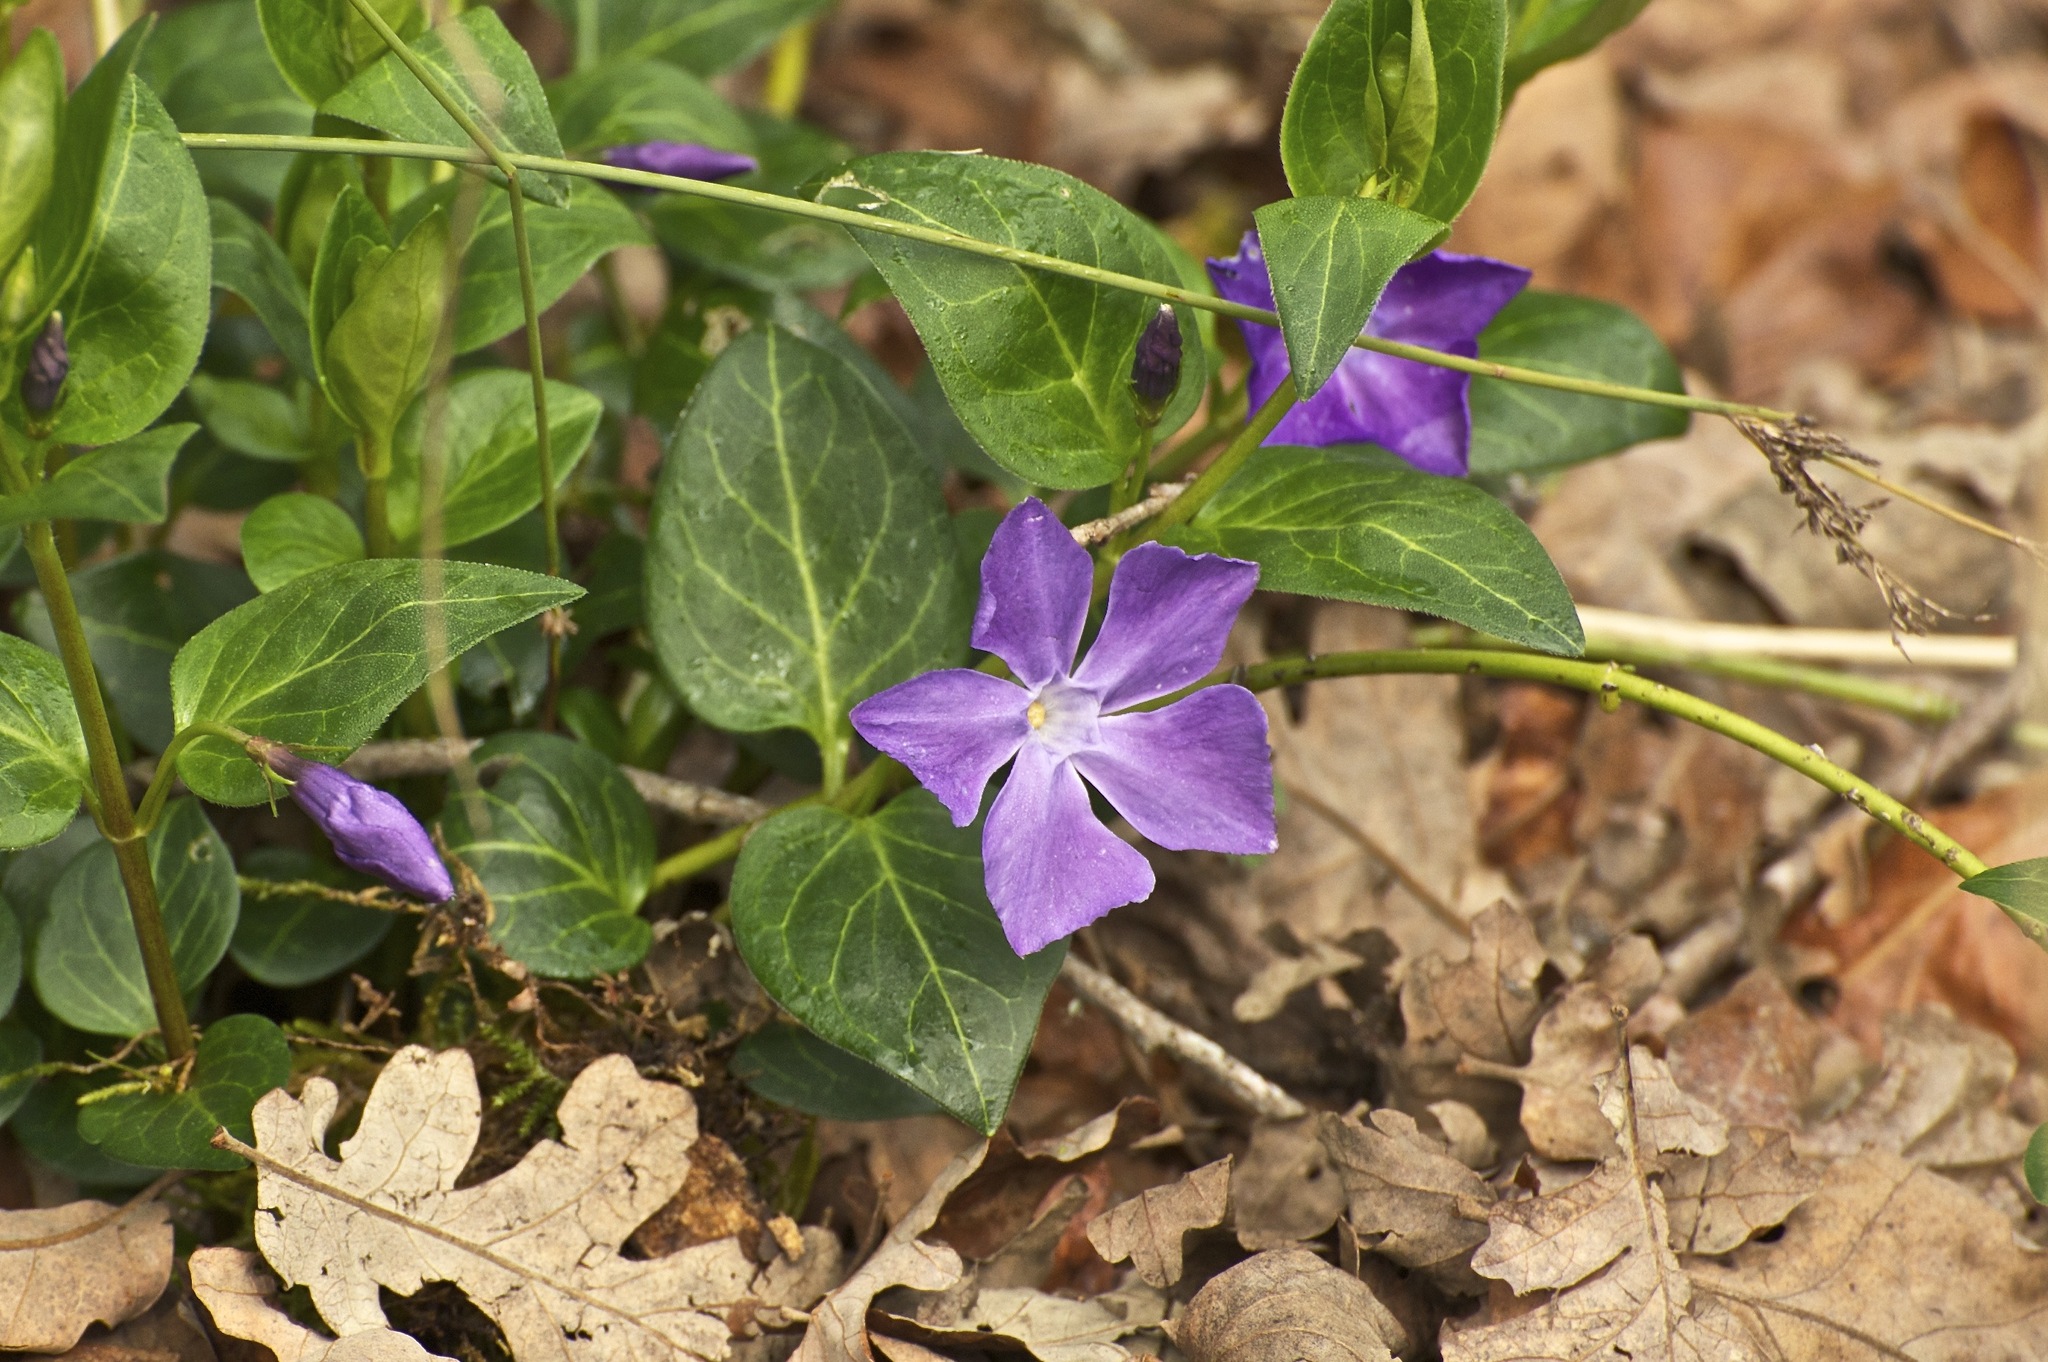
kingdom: Plantae
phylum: Tracheophyta
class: Magnoliopsida
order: Gentianales
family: Apocynaceae
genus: Vinca
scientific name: Vinca major
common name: Greater periwinkle
